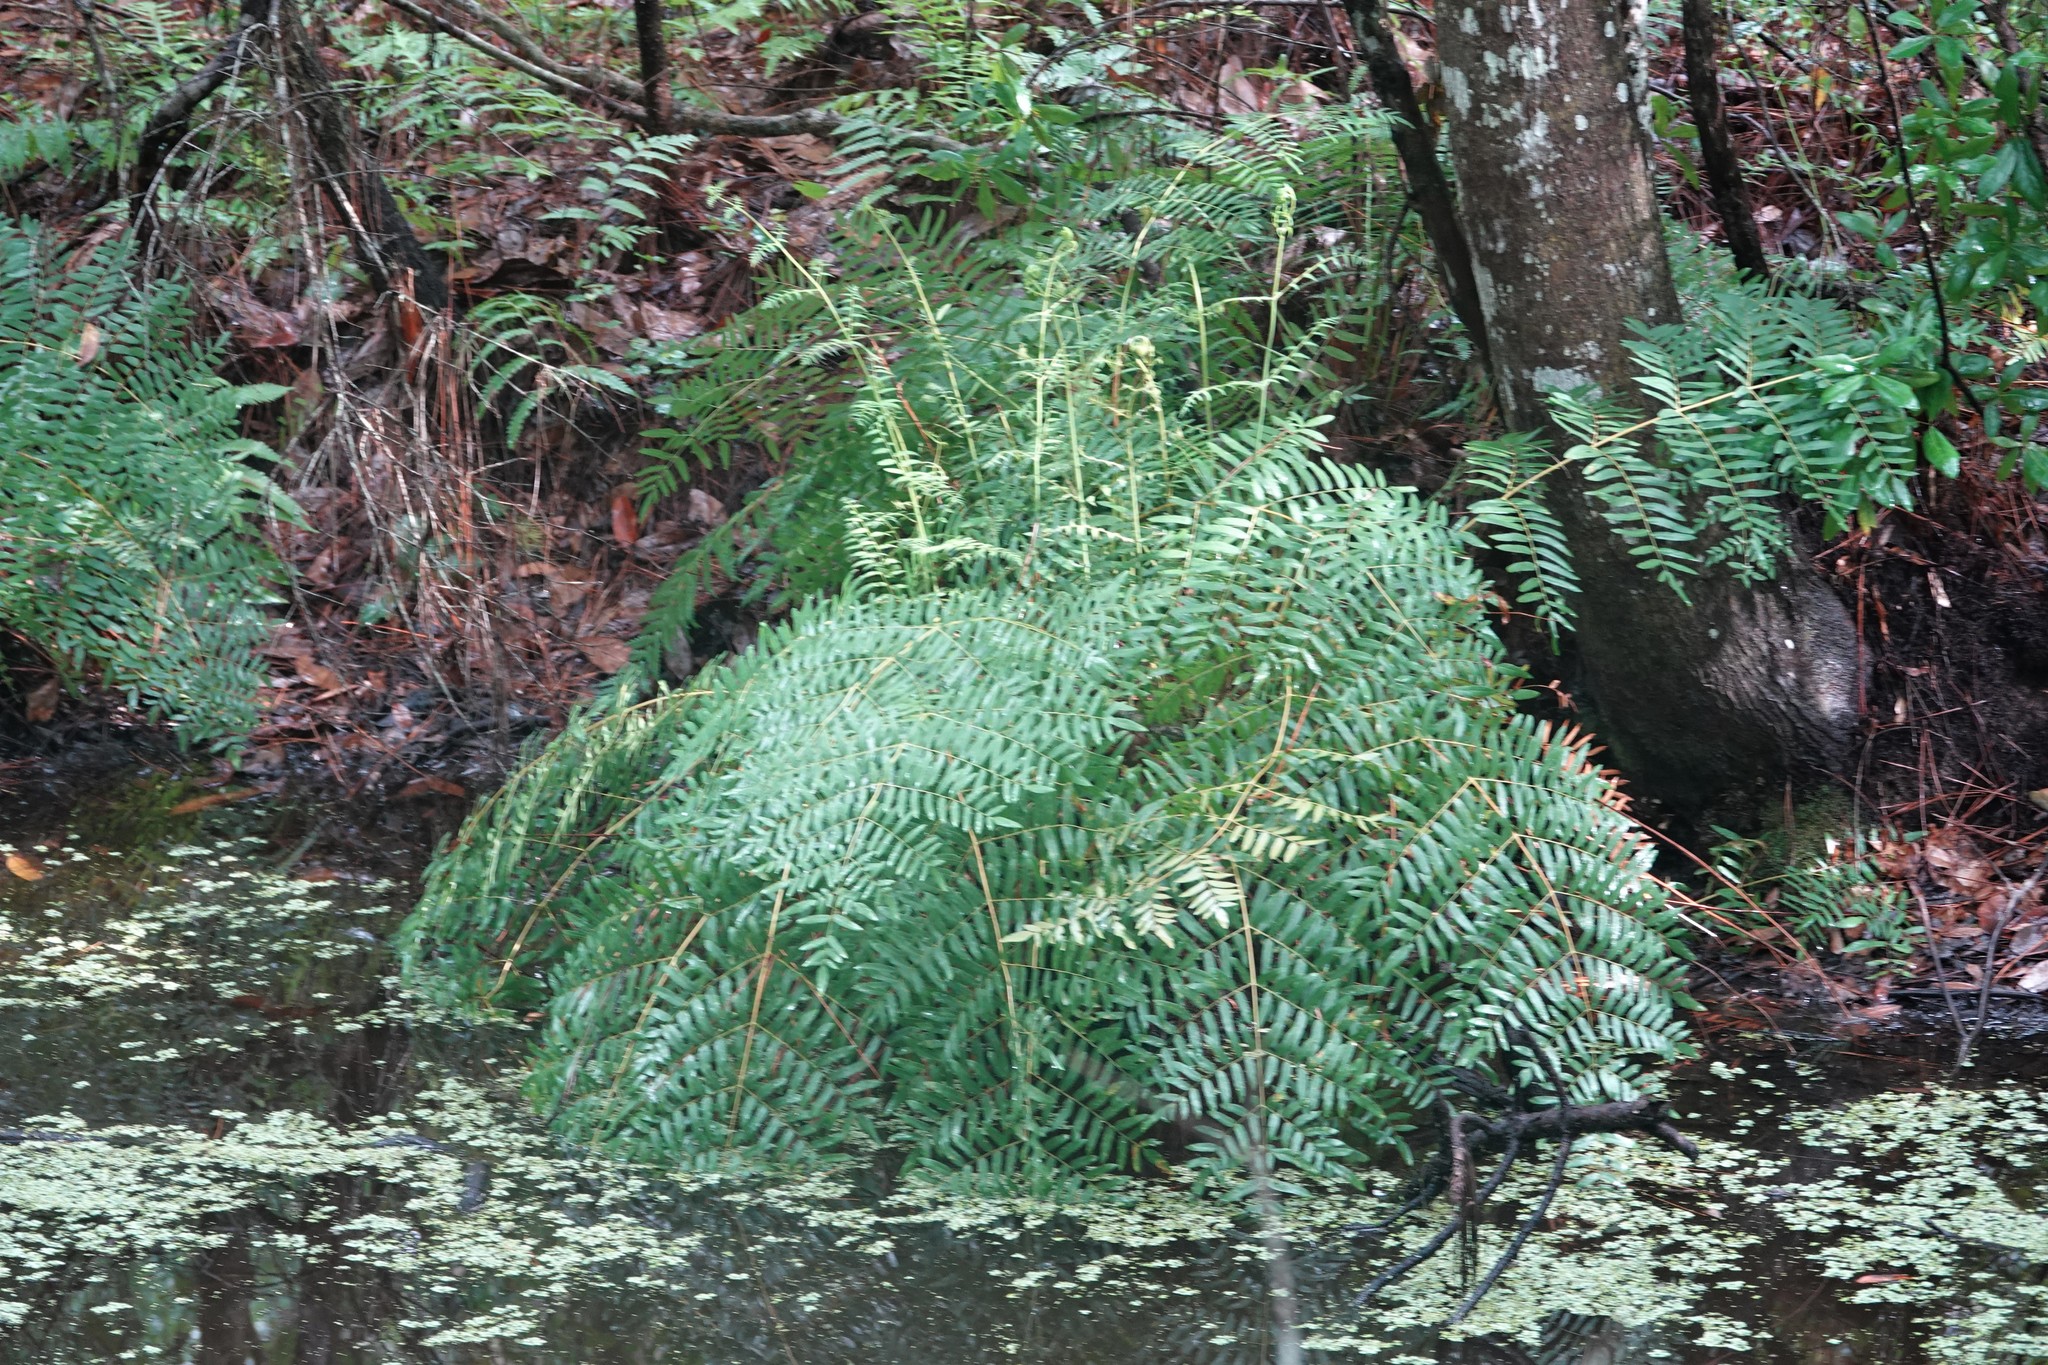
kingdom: Plantae
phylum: Tracheophyta
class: Polypodiopsida
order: Osmundales
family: Osmundaceae
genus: Osmunda
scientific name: Osmunda spectabilis
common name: American royal fern
